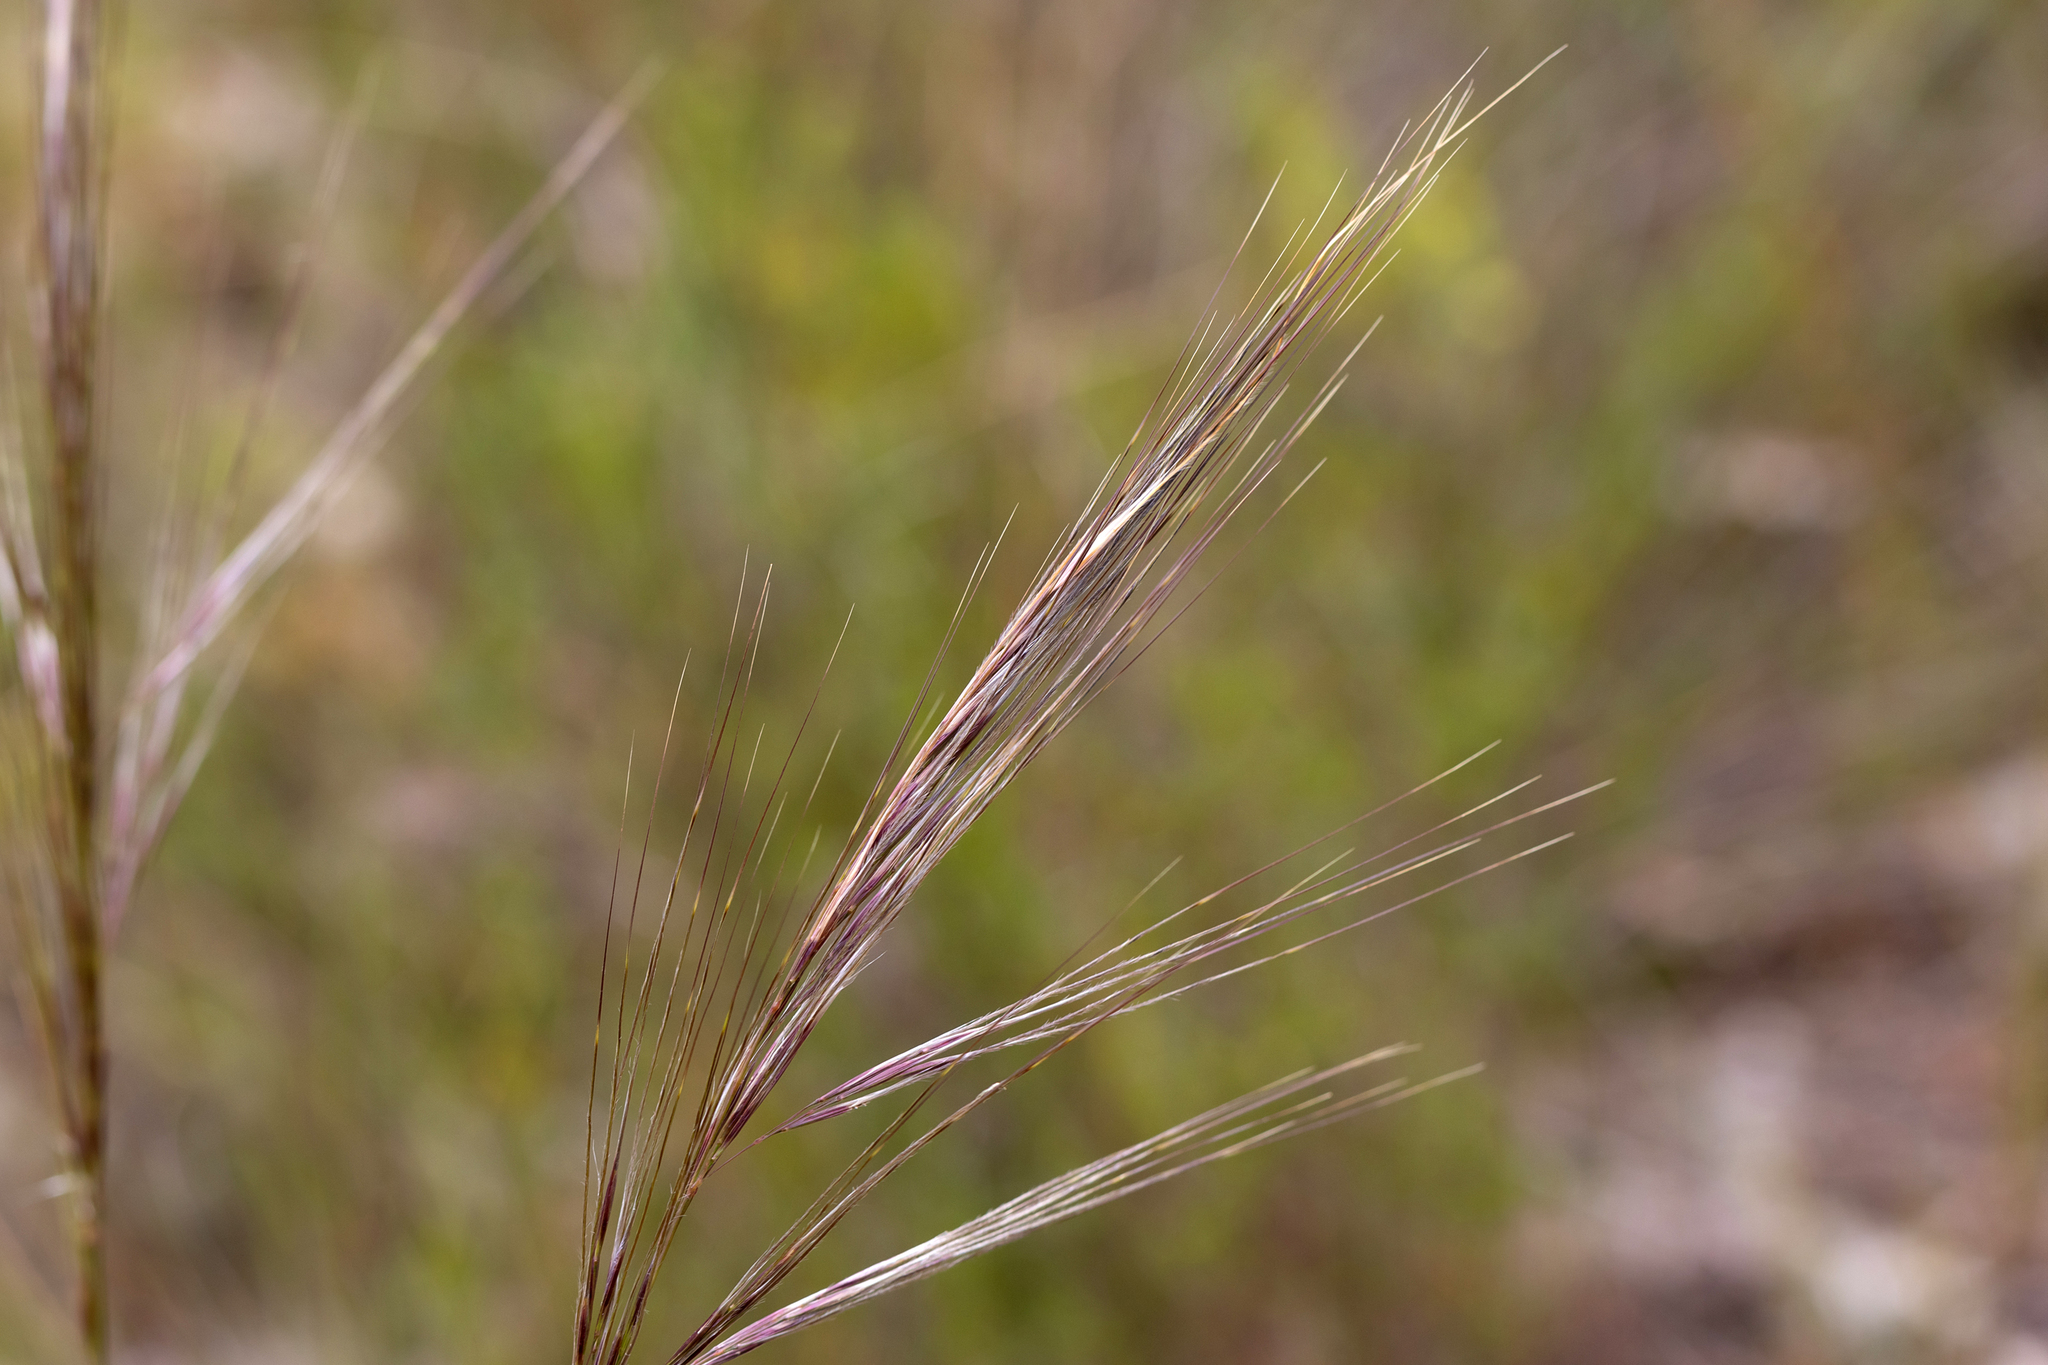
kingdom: Plantae
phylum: Tracheophyta
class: Liliopsida
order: Poales
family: Poaceae
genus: Austrostipa
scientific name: Austrostipa campylachne
